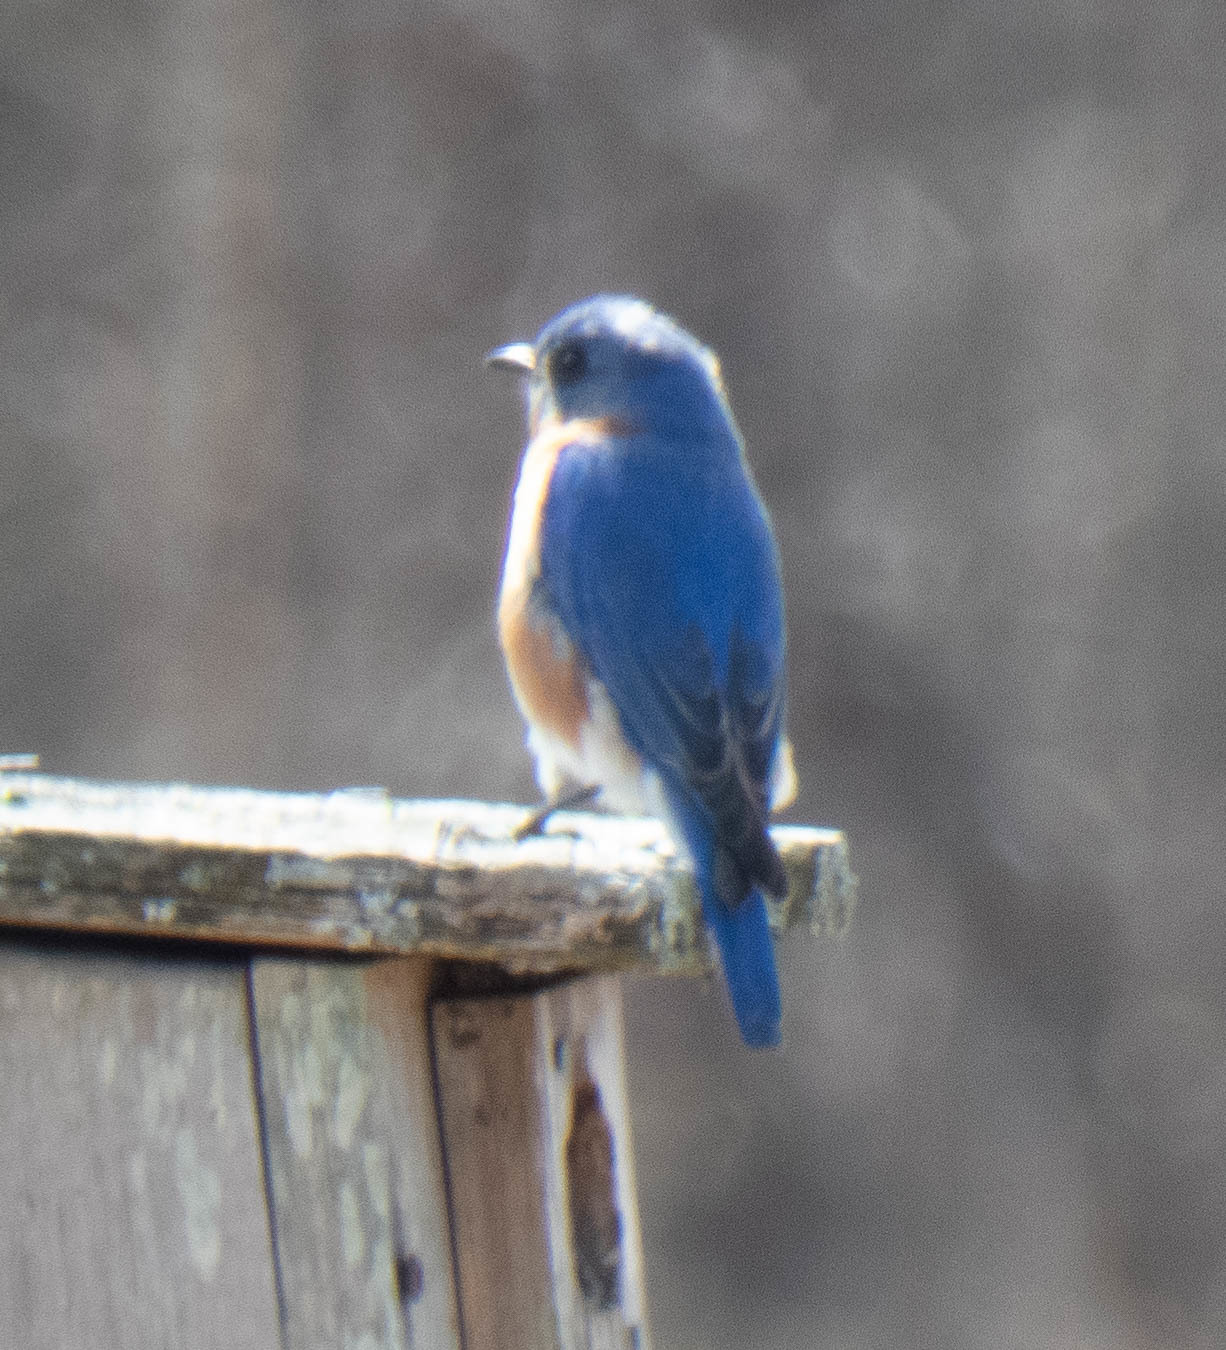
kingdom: Animalia
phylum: Chordata
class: Aves
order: Passeriformes
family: Turdidae
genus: Sialia
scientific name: Sialia sialis
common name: Eastern bluebird
